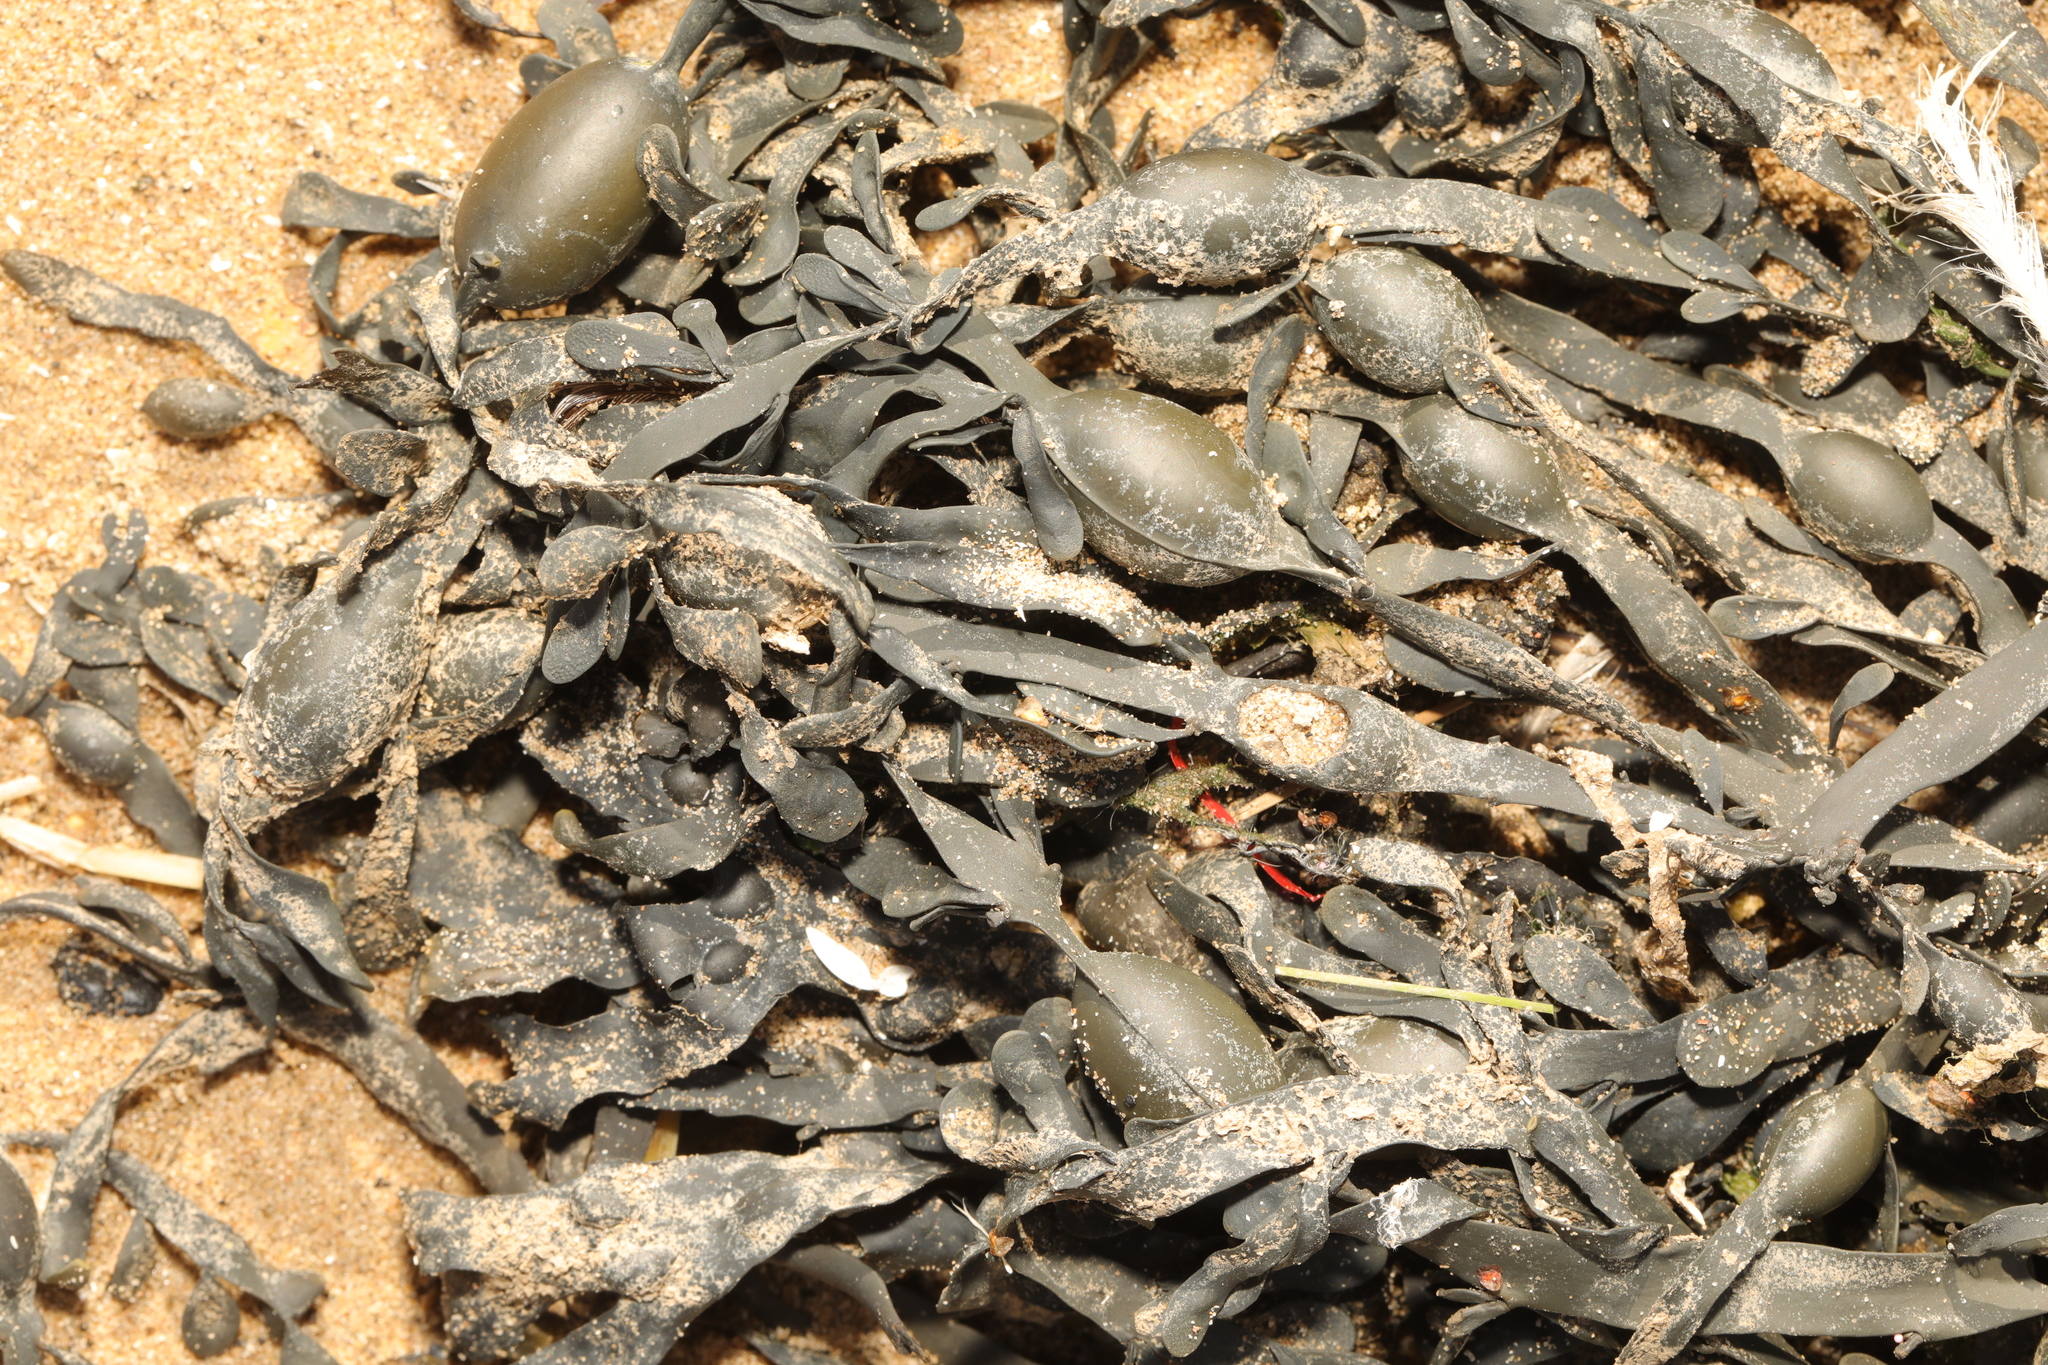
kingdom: Chromista
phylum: Ochrophyta
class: Phaeophyceae
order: Fucales
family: Fucaceae
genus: Ascophyllum
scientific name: Ascophyllum nodosum
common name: Knotted wrack
